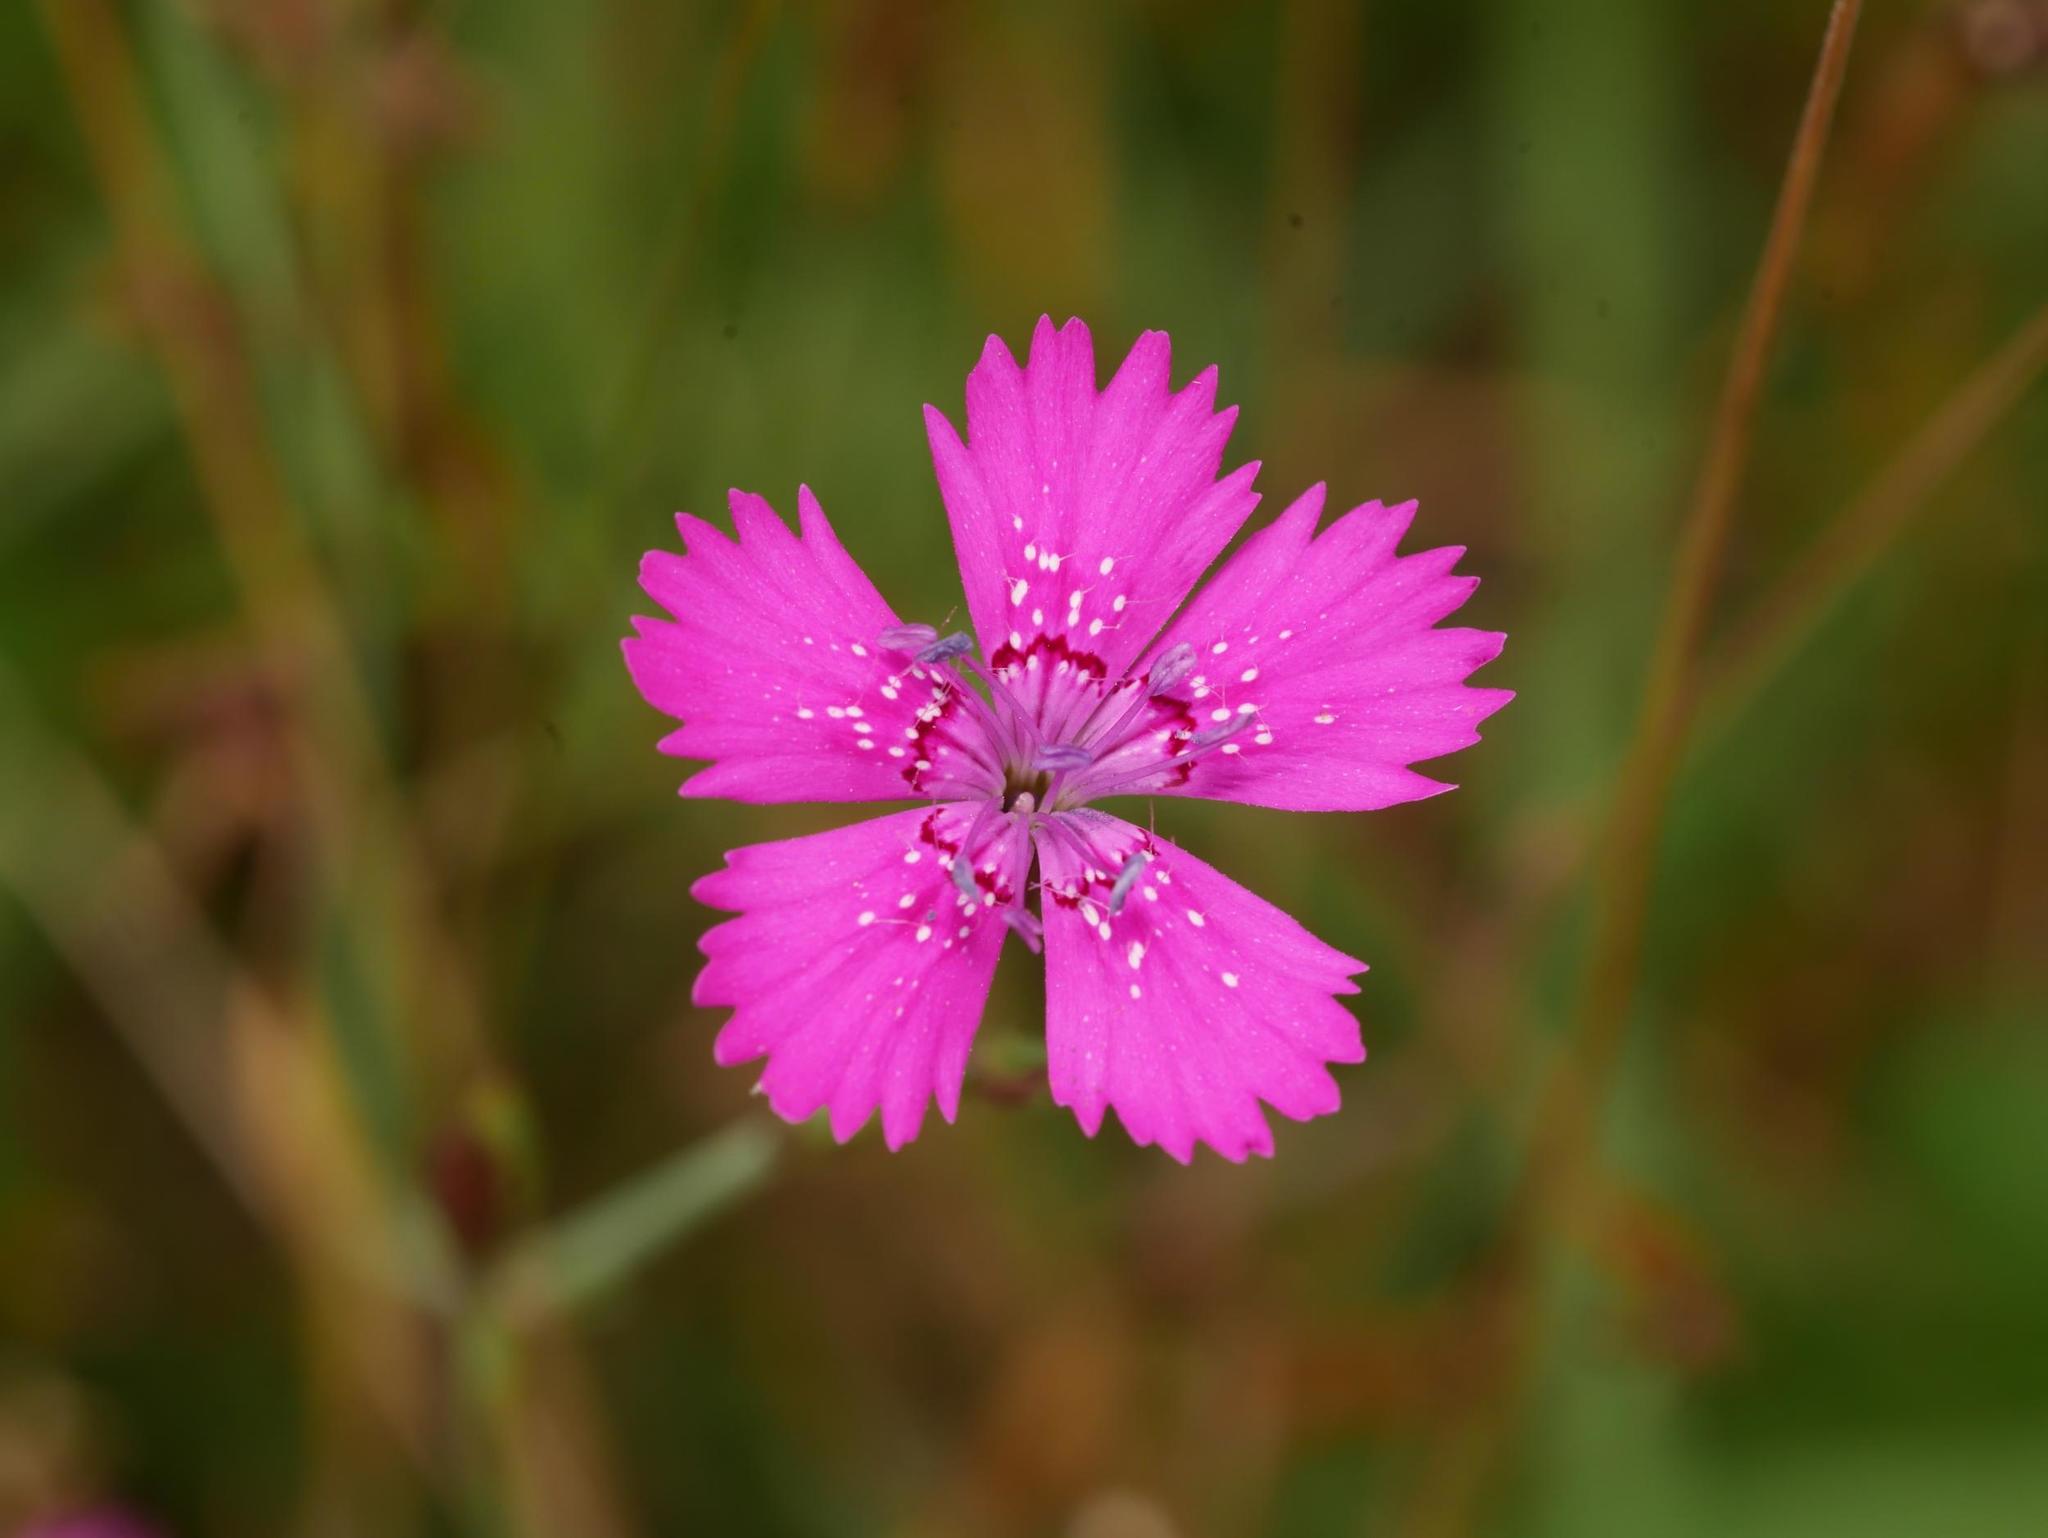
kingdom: Plantae
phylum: Tracheophyta
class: Magnoliopsida
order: Caryophyllales
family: Caryophyllaceae
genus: Dianthus
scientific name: Dianthus deltoides
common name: Maiden pink
